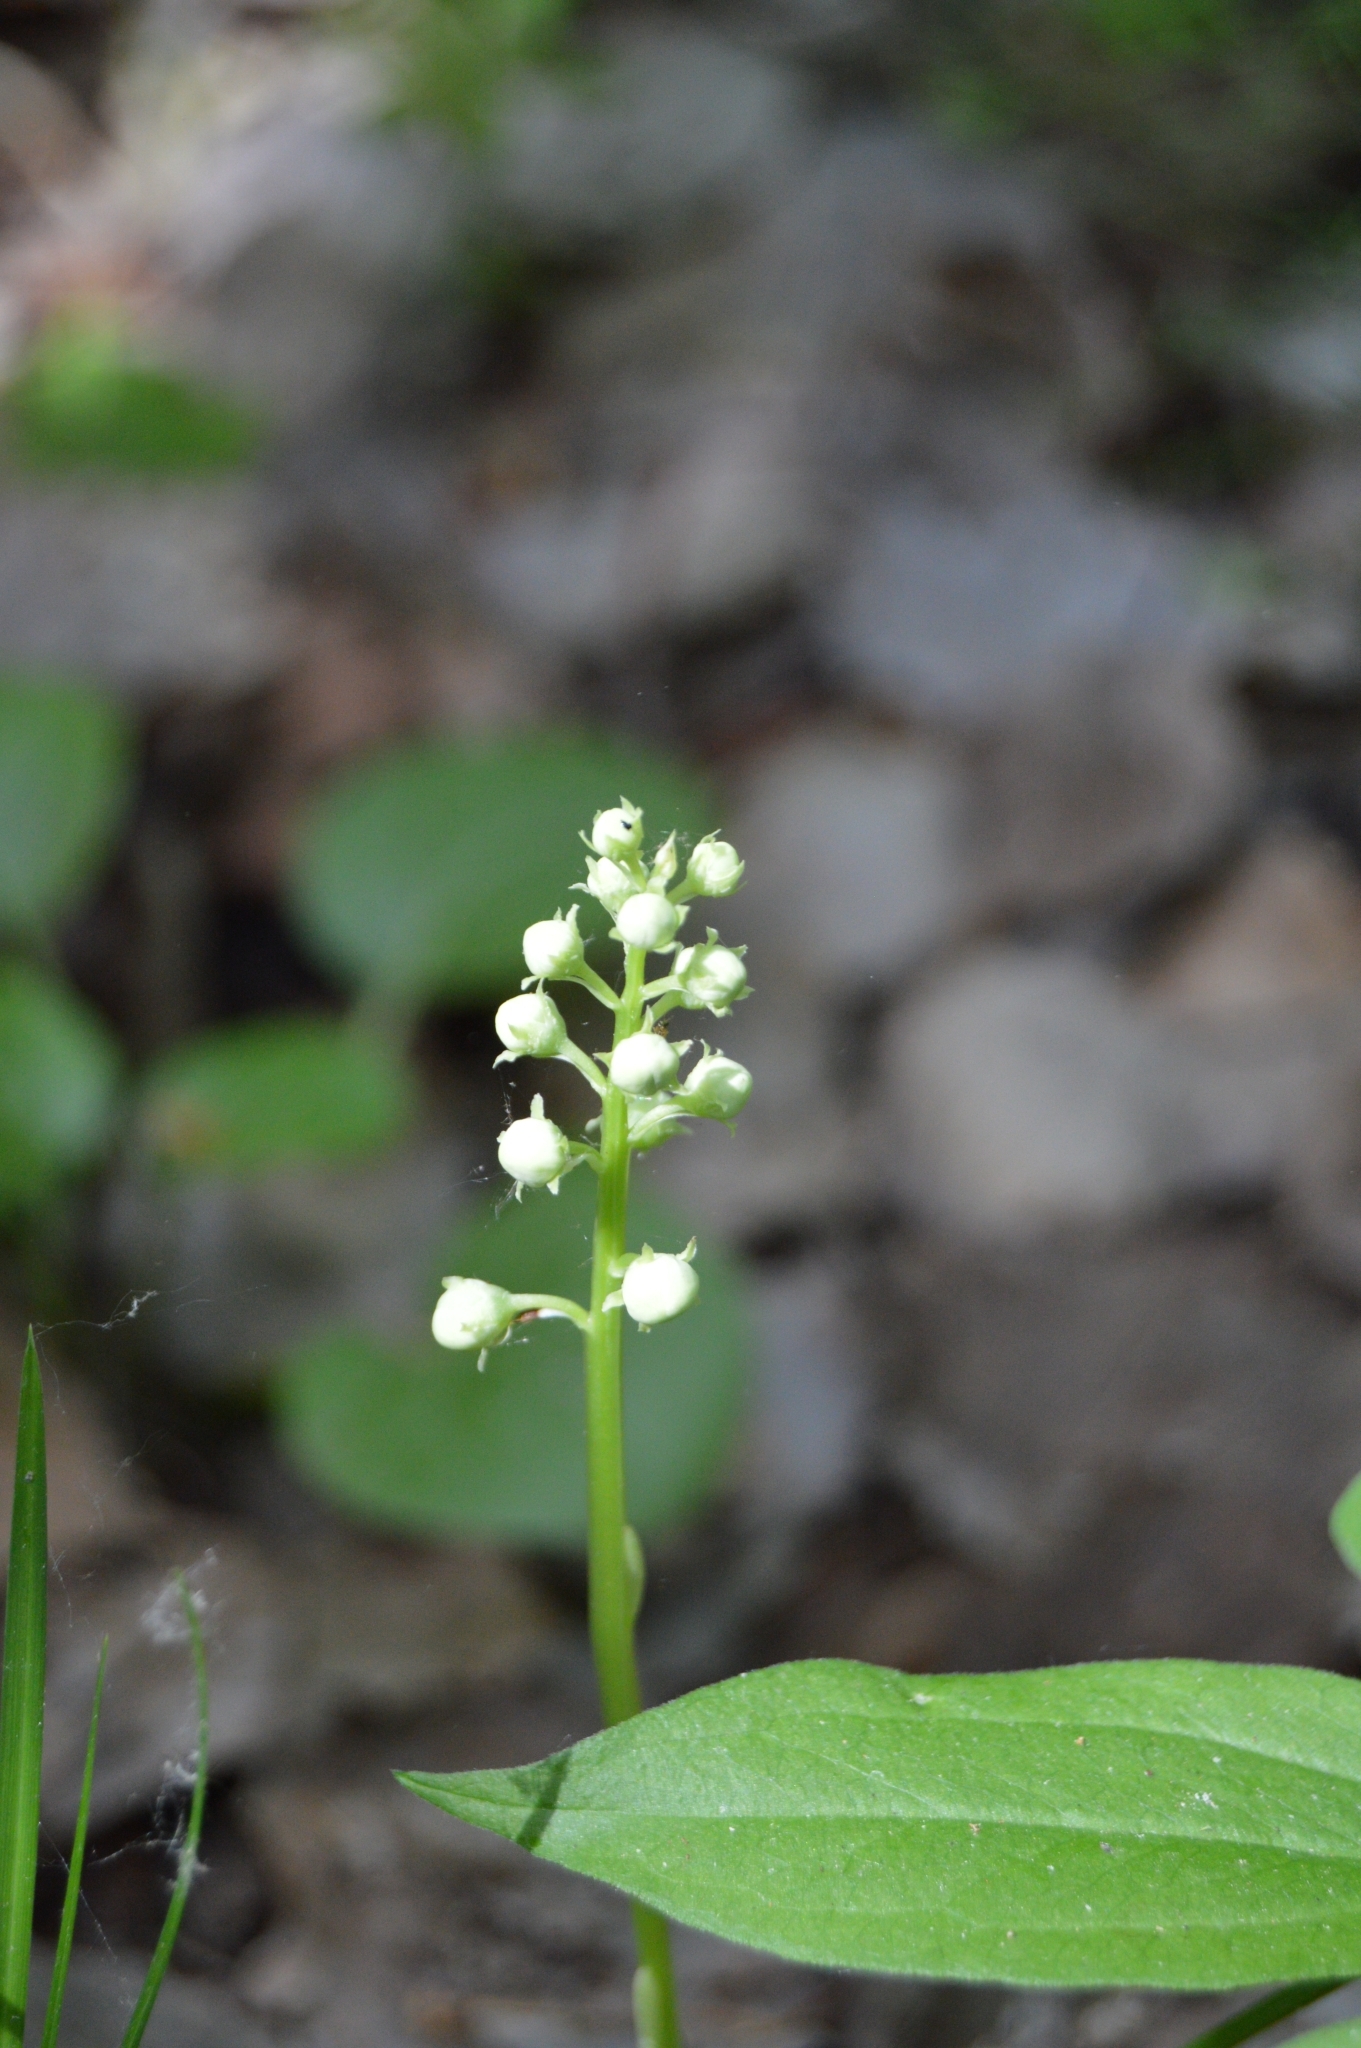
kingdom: Plantae
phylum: Tracheophyta
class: Magnoliopsida
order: Ericales
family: Ericaceae
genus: Pyrola
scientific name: Pyrola rotundifolia
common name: Round-leaved wintergreen
